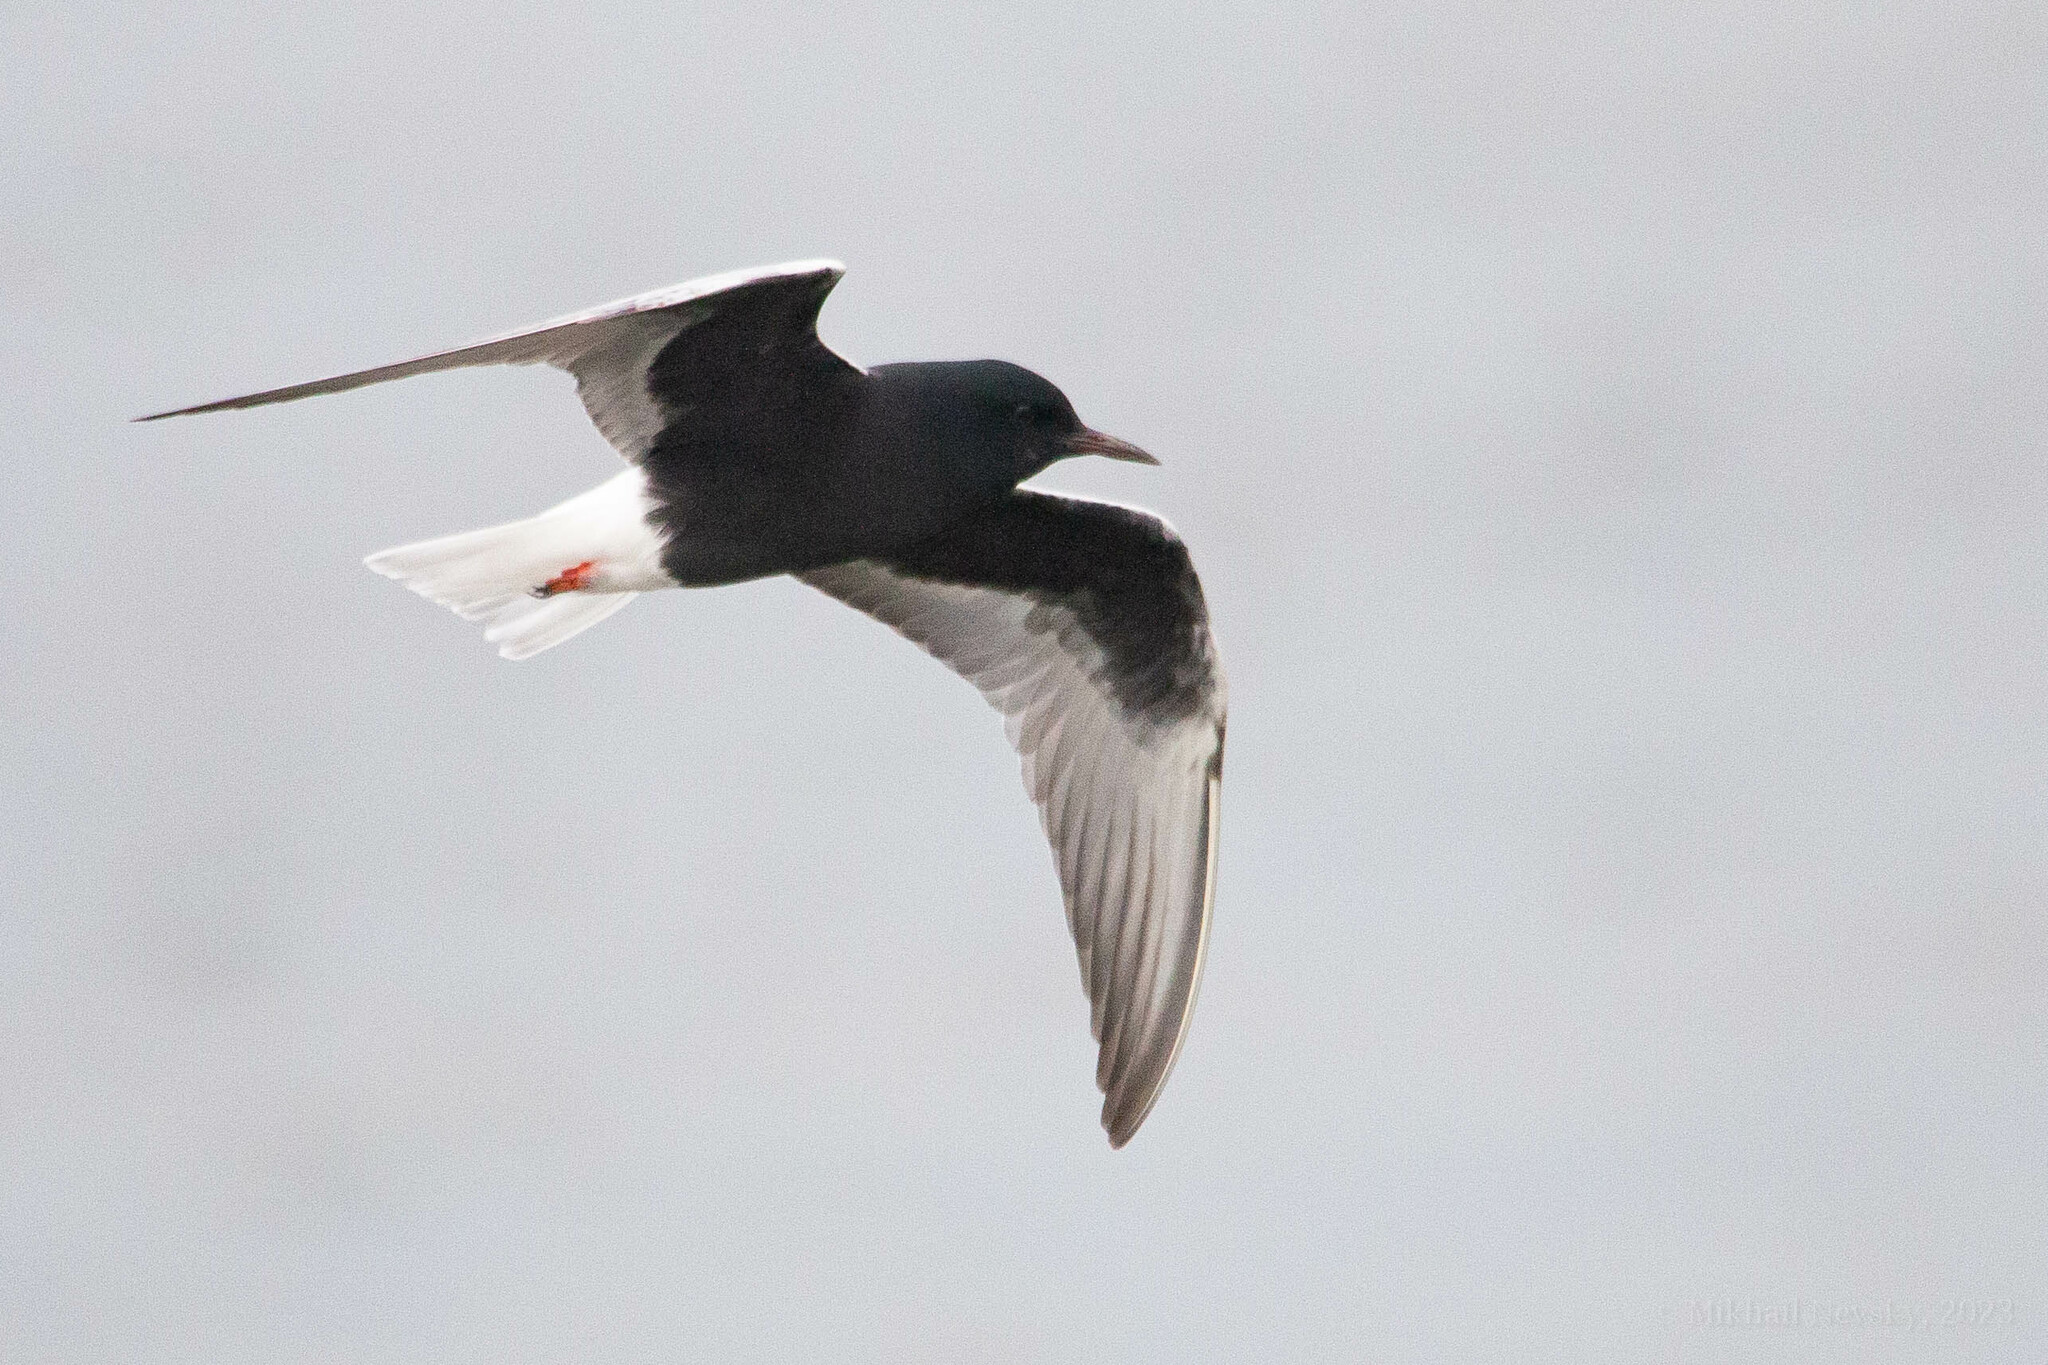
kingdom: Animalia
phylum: Chordata
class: Aves
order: Charadriiformes
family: Laridae
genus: Chlidonias
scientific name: Chlidonias leucopterus
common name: White-winged tern
